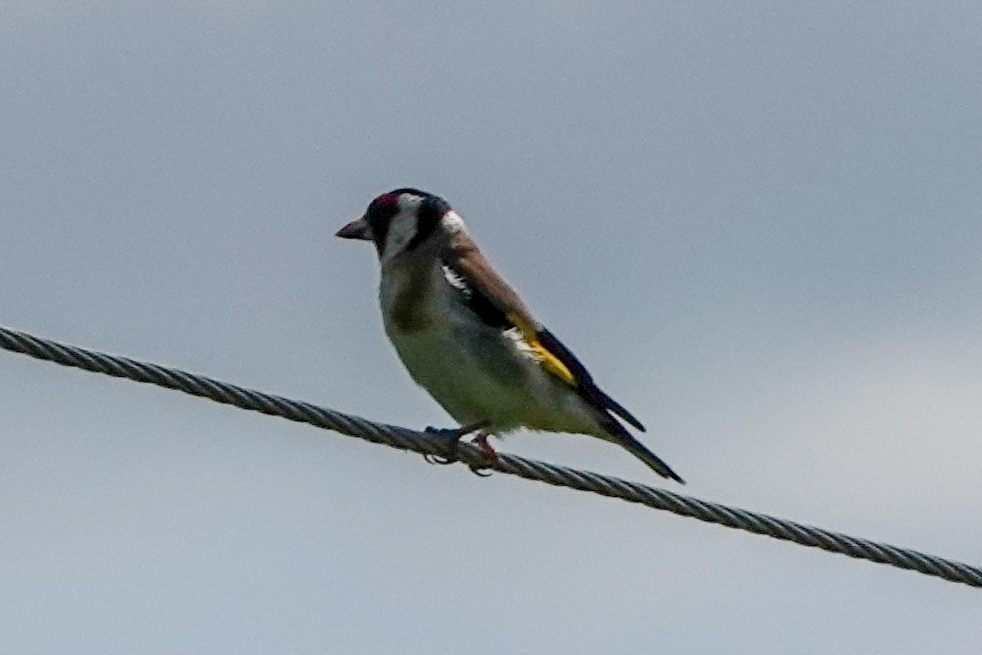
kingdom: Animalia
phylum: Chordata
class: Aves
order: Passeriformes
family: Fringillidae
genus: Carduelis
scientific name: Carduelis carduelis
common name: European goldfinch
